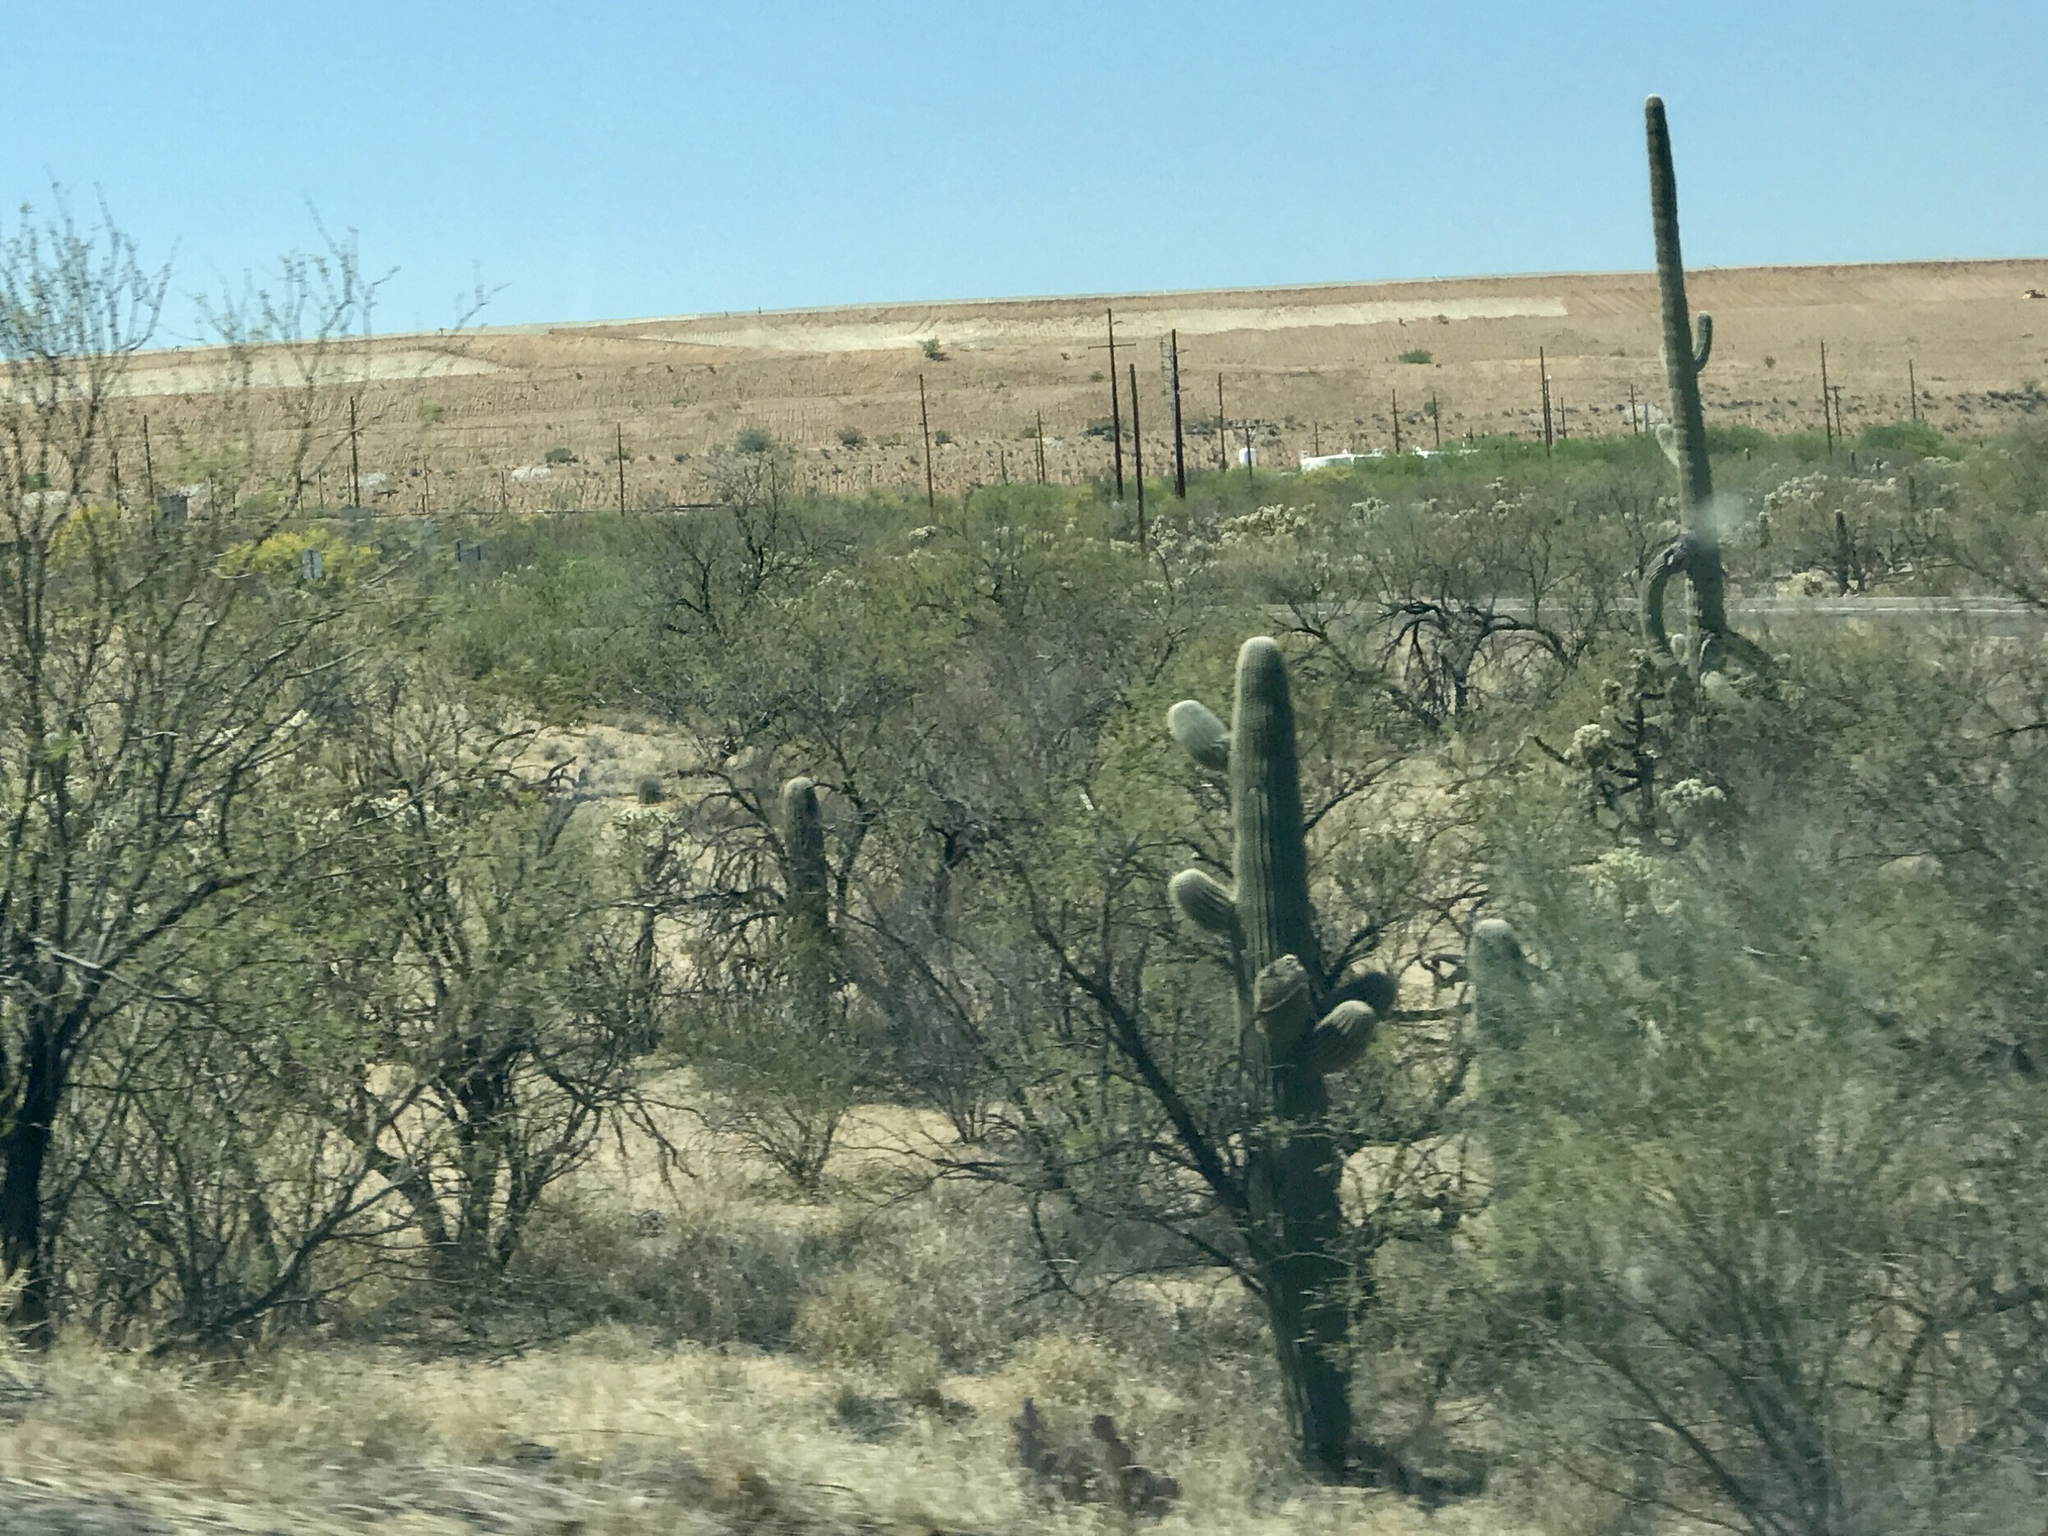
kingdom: Plantae
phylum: Tracheophyta
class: Magnoliopsida
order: Caryophyllales
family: Cactaceae
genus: Carnegiea
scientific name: Carnegiea gigantea
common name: Saguaro
